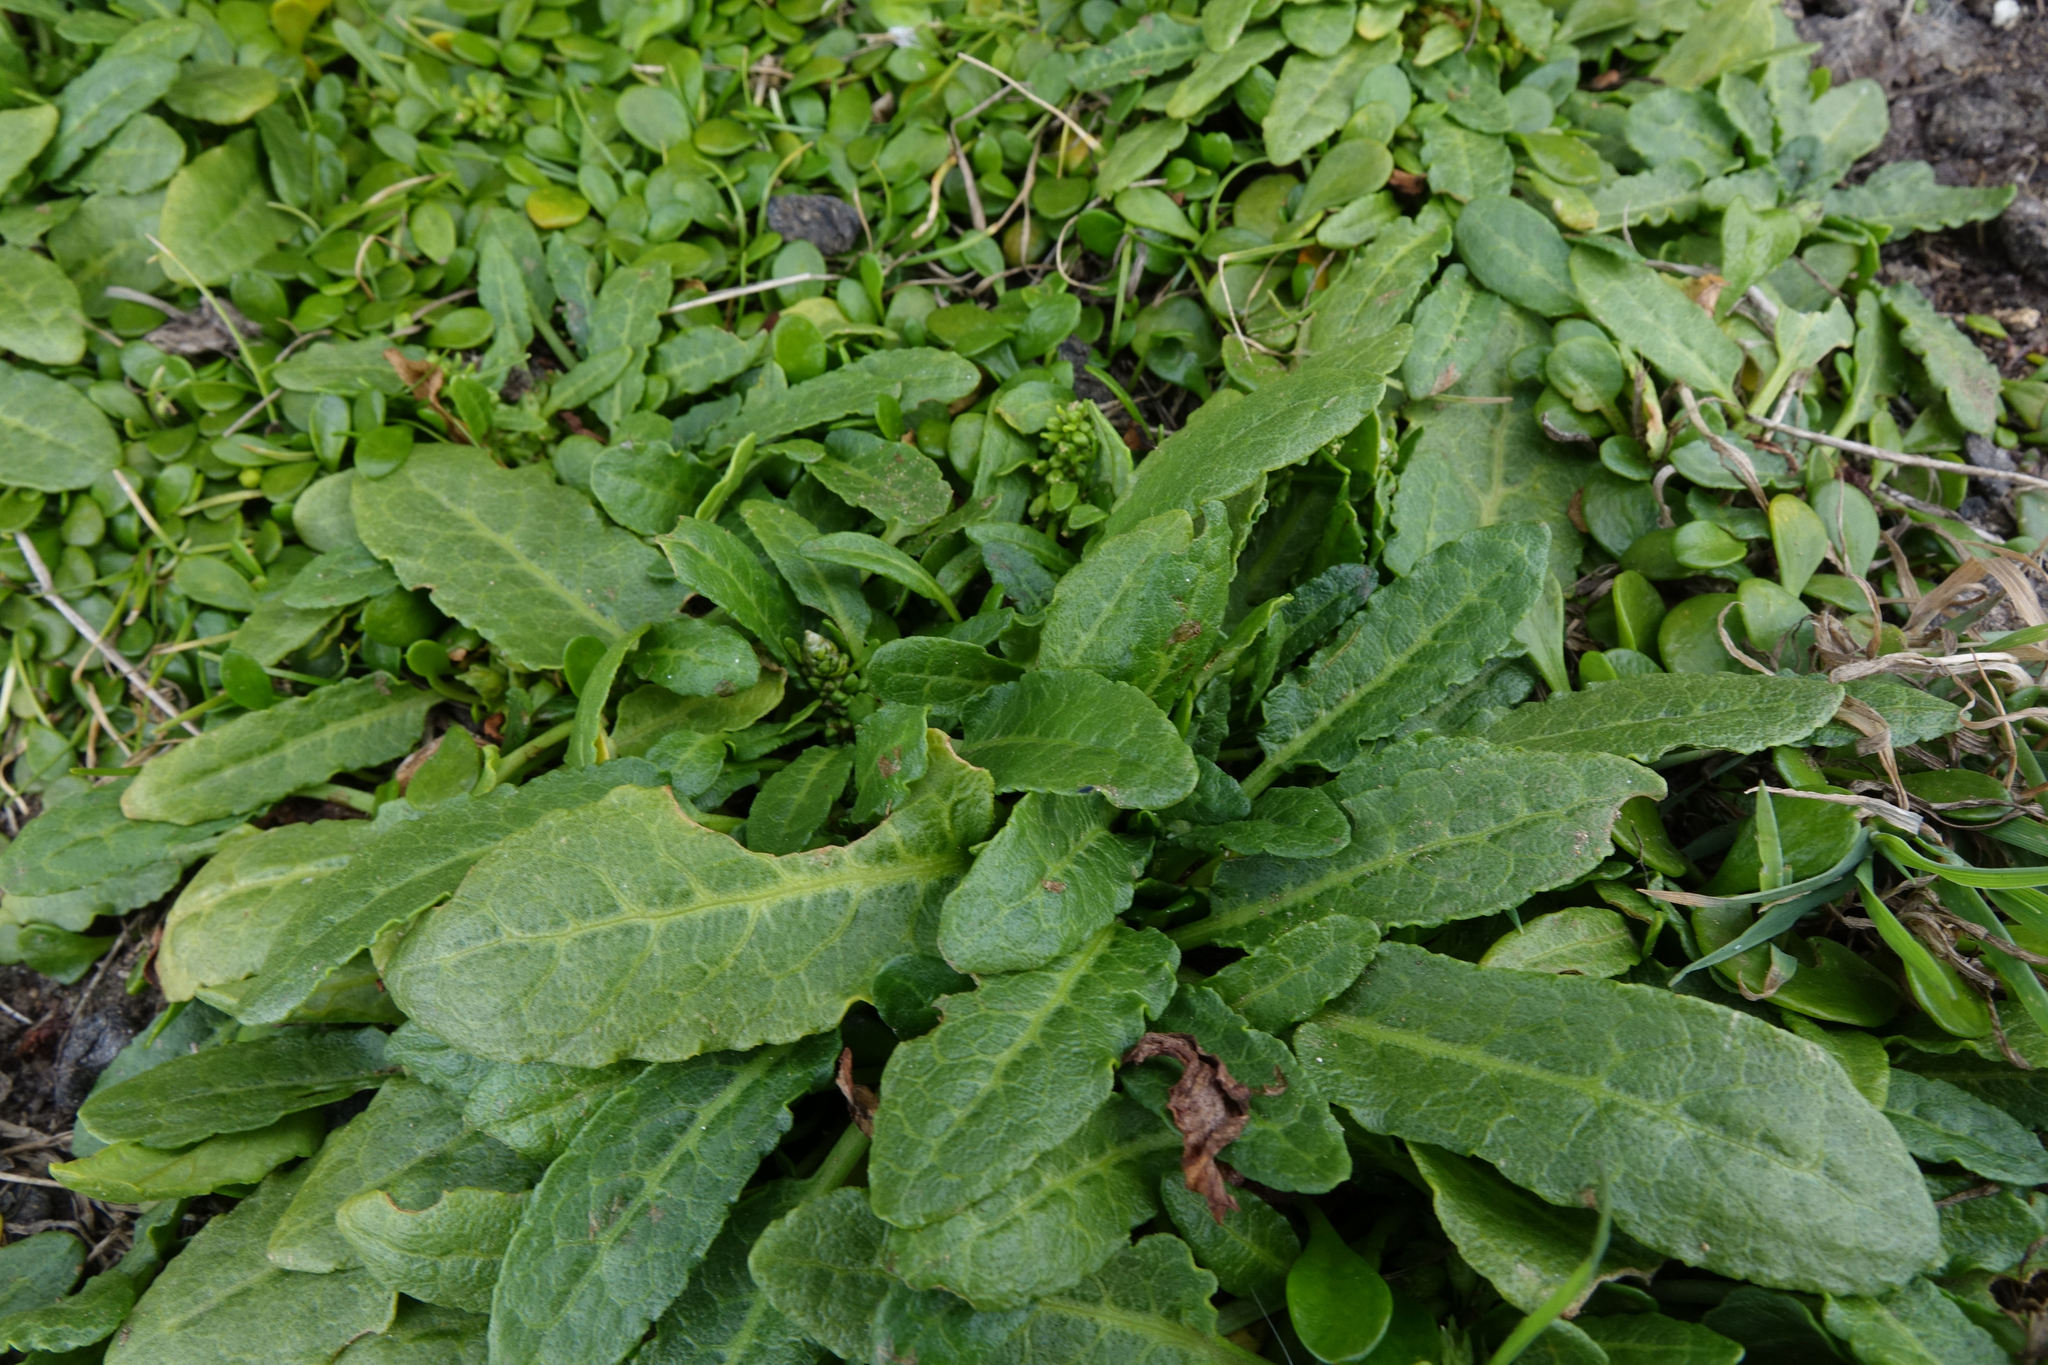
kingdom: Plantae
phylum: Tracheophyta
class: Magnoliopsida
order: Caryophyllales
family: Polygonaceae
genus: Rumex
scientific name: Rumex neglectus
